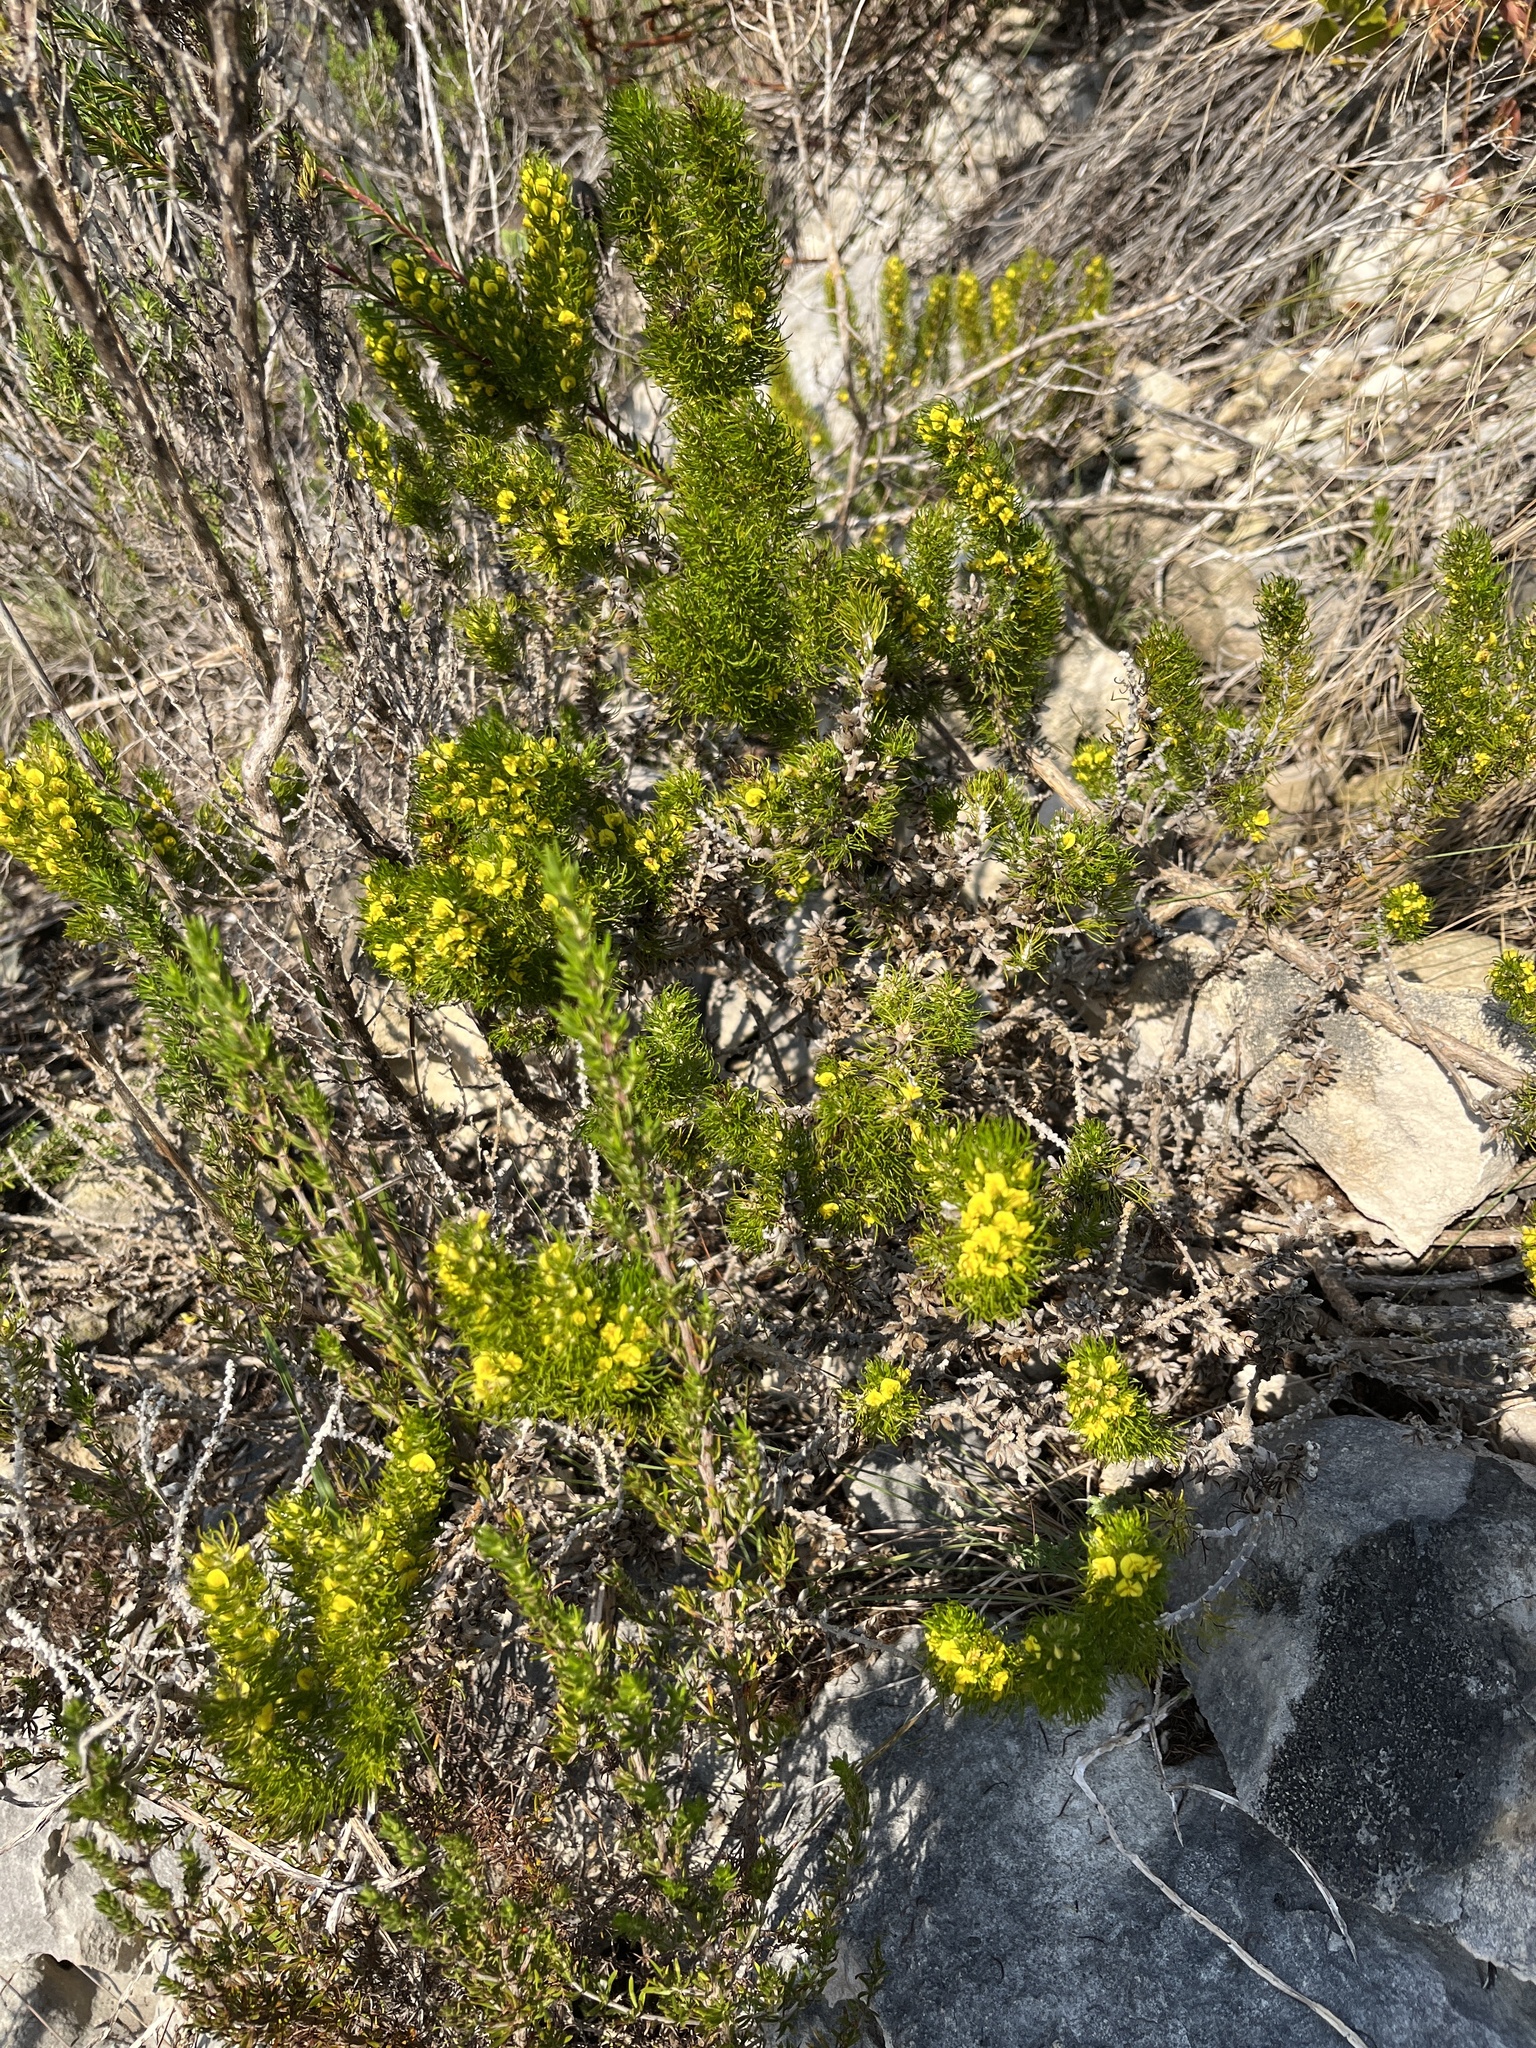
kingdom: Plantae
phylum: Tracheophyta
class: Magnoliopsida
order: Fabales
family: Fabaceae
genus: Aspalathus
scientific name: Aspalathus alopecurus
